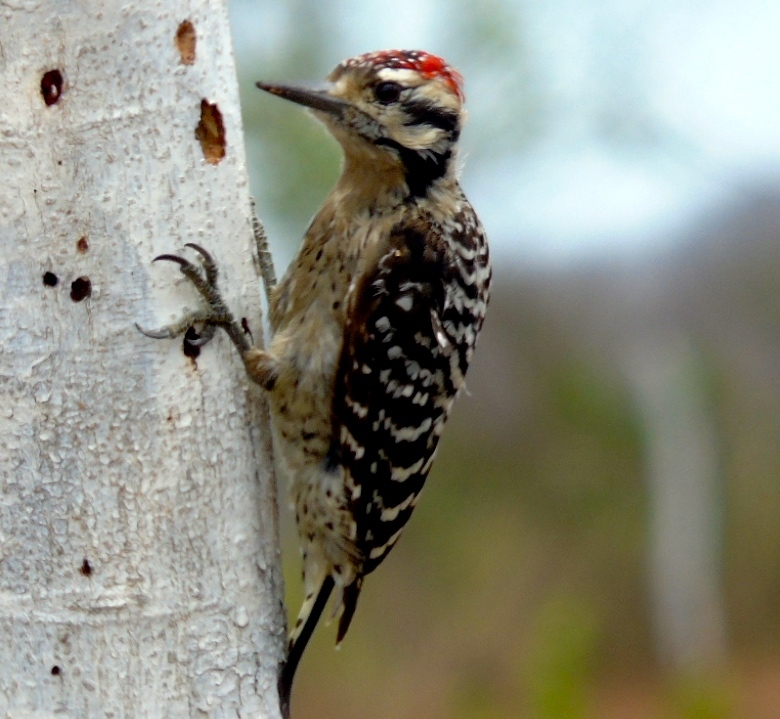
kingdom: Animalia
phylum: Chordata
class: Aves
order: Piciformes
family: Picidae
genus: Dryobates
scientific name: Dryobates scalaris
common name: Ladder-backed woodpecker
